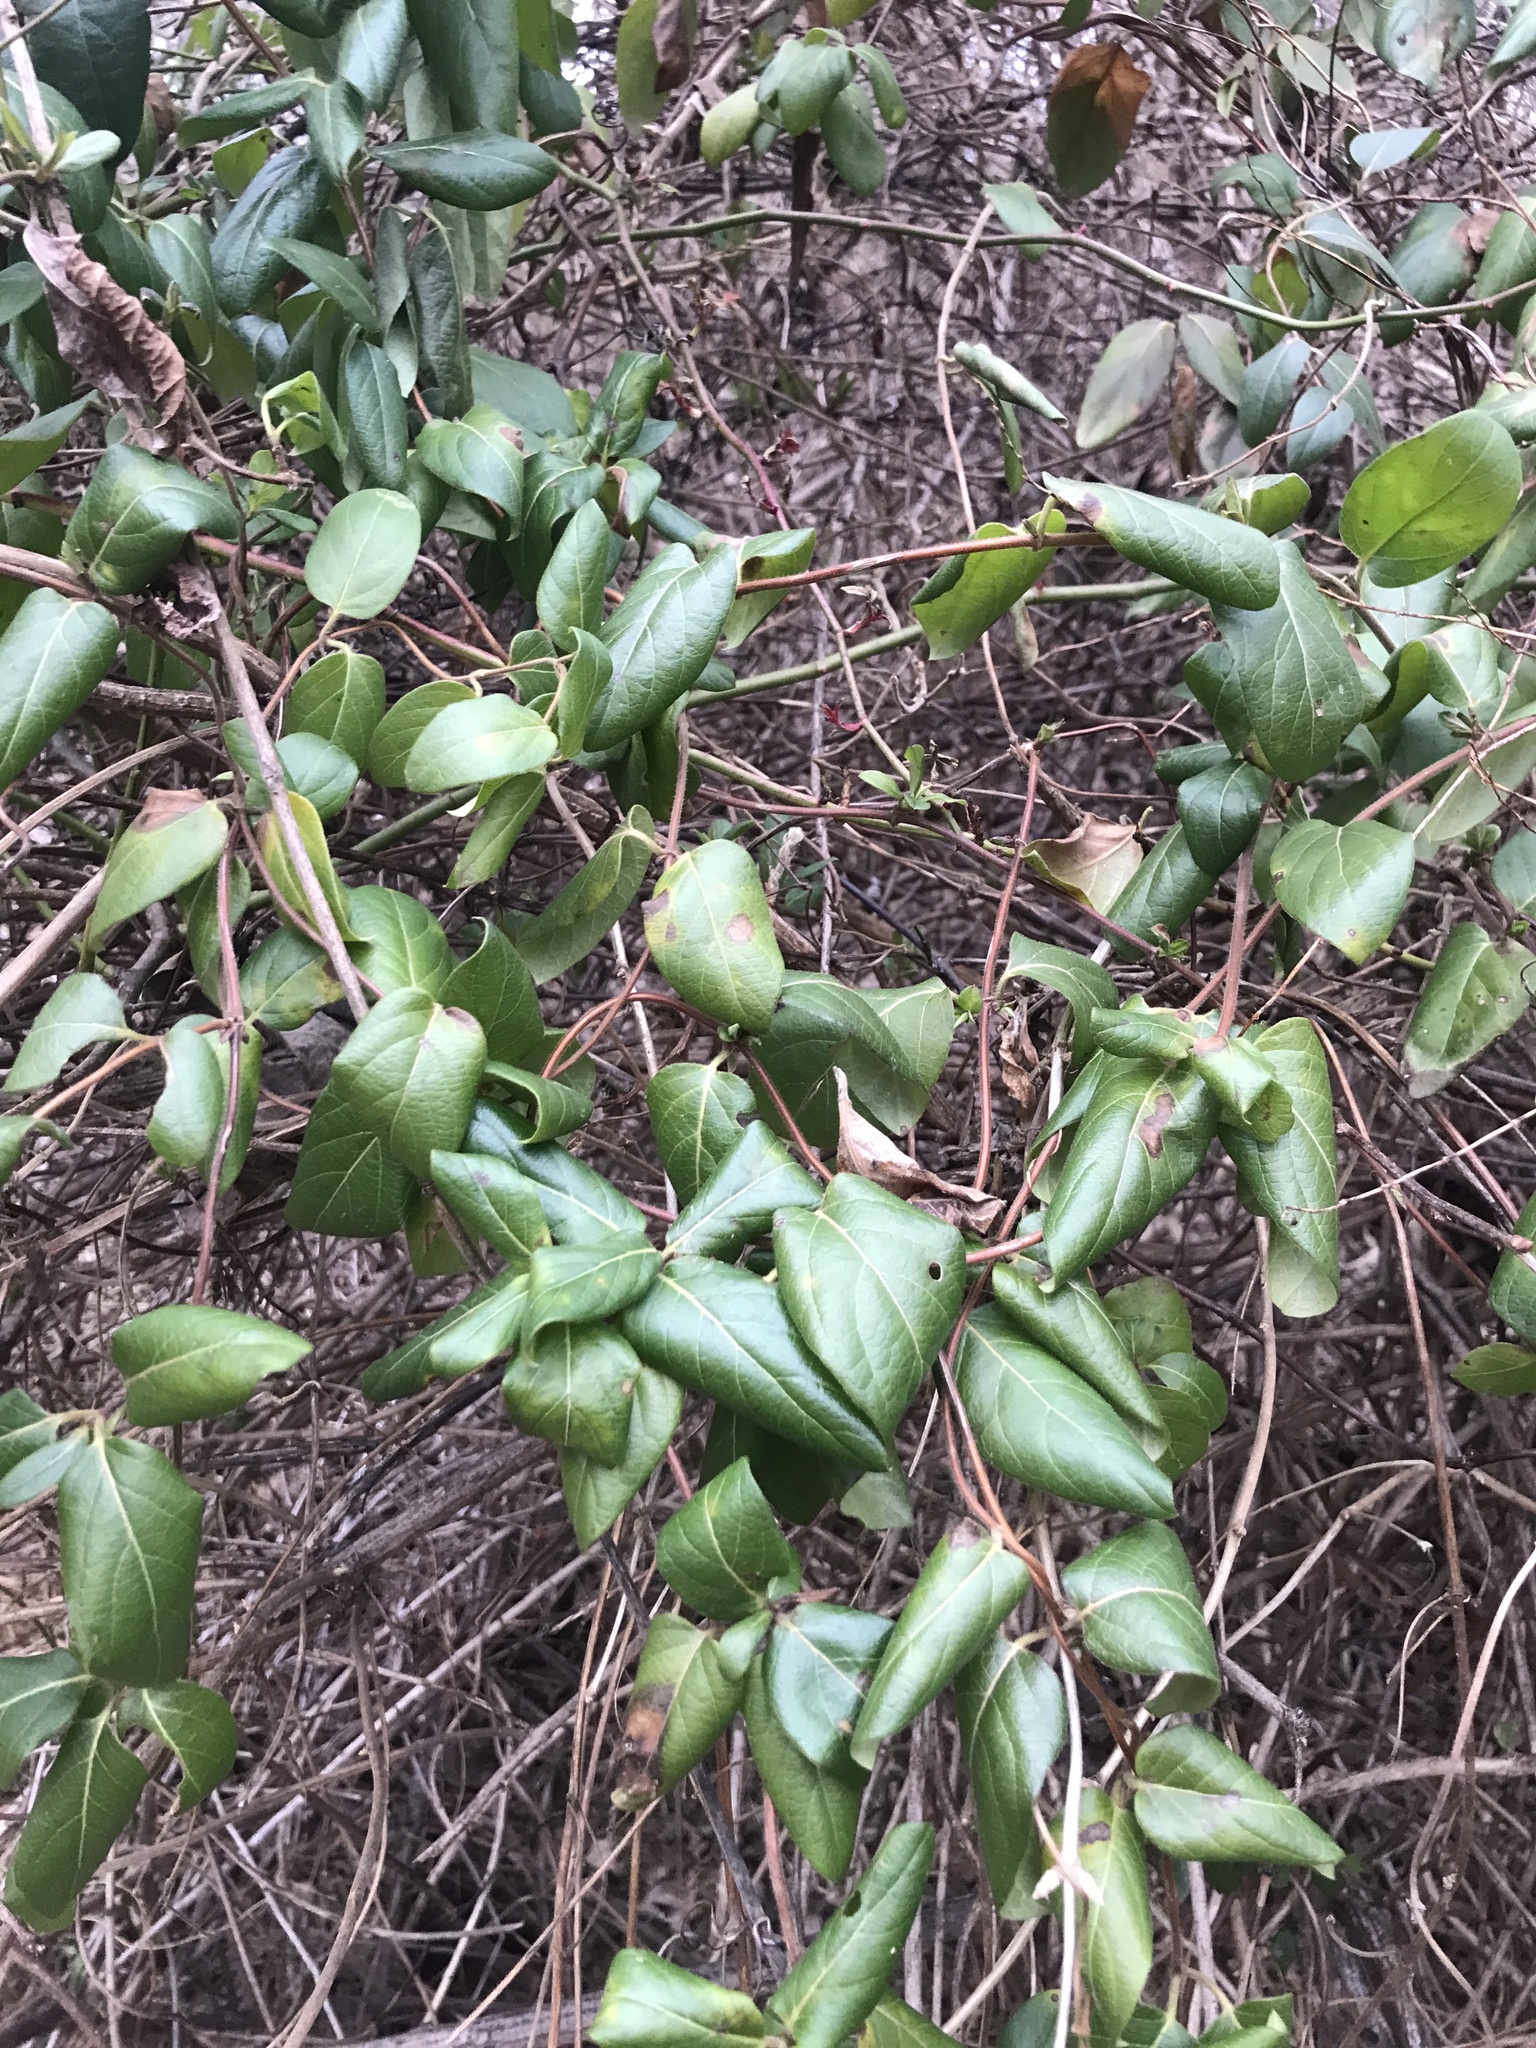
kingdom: Plantae
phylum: Tracheophyta
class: Magnoliopsida
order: Dipsacales
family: Caprifoliaceae
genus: Lonicera
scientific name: Lonicera japonica
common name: Japanese honeysuckle
